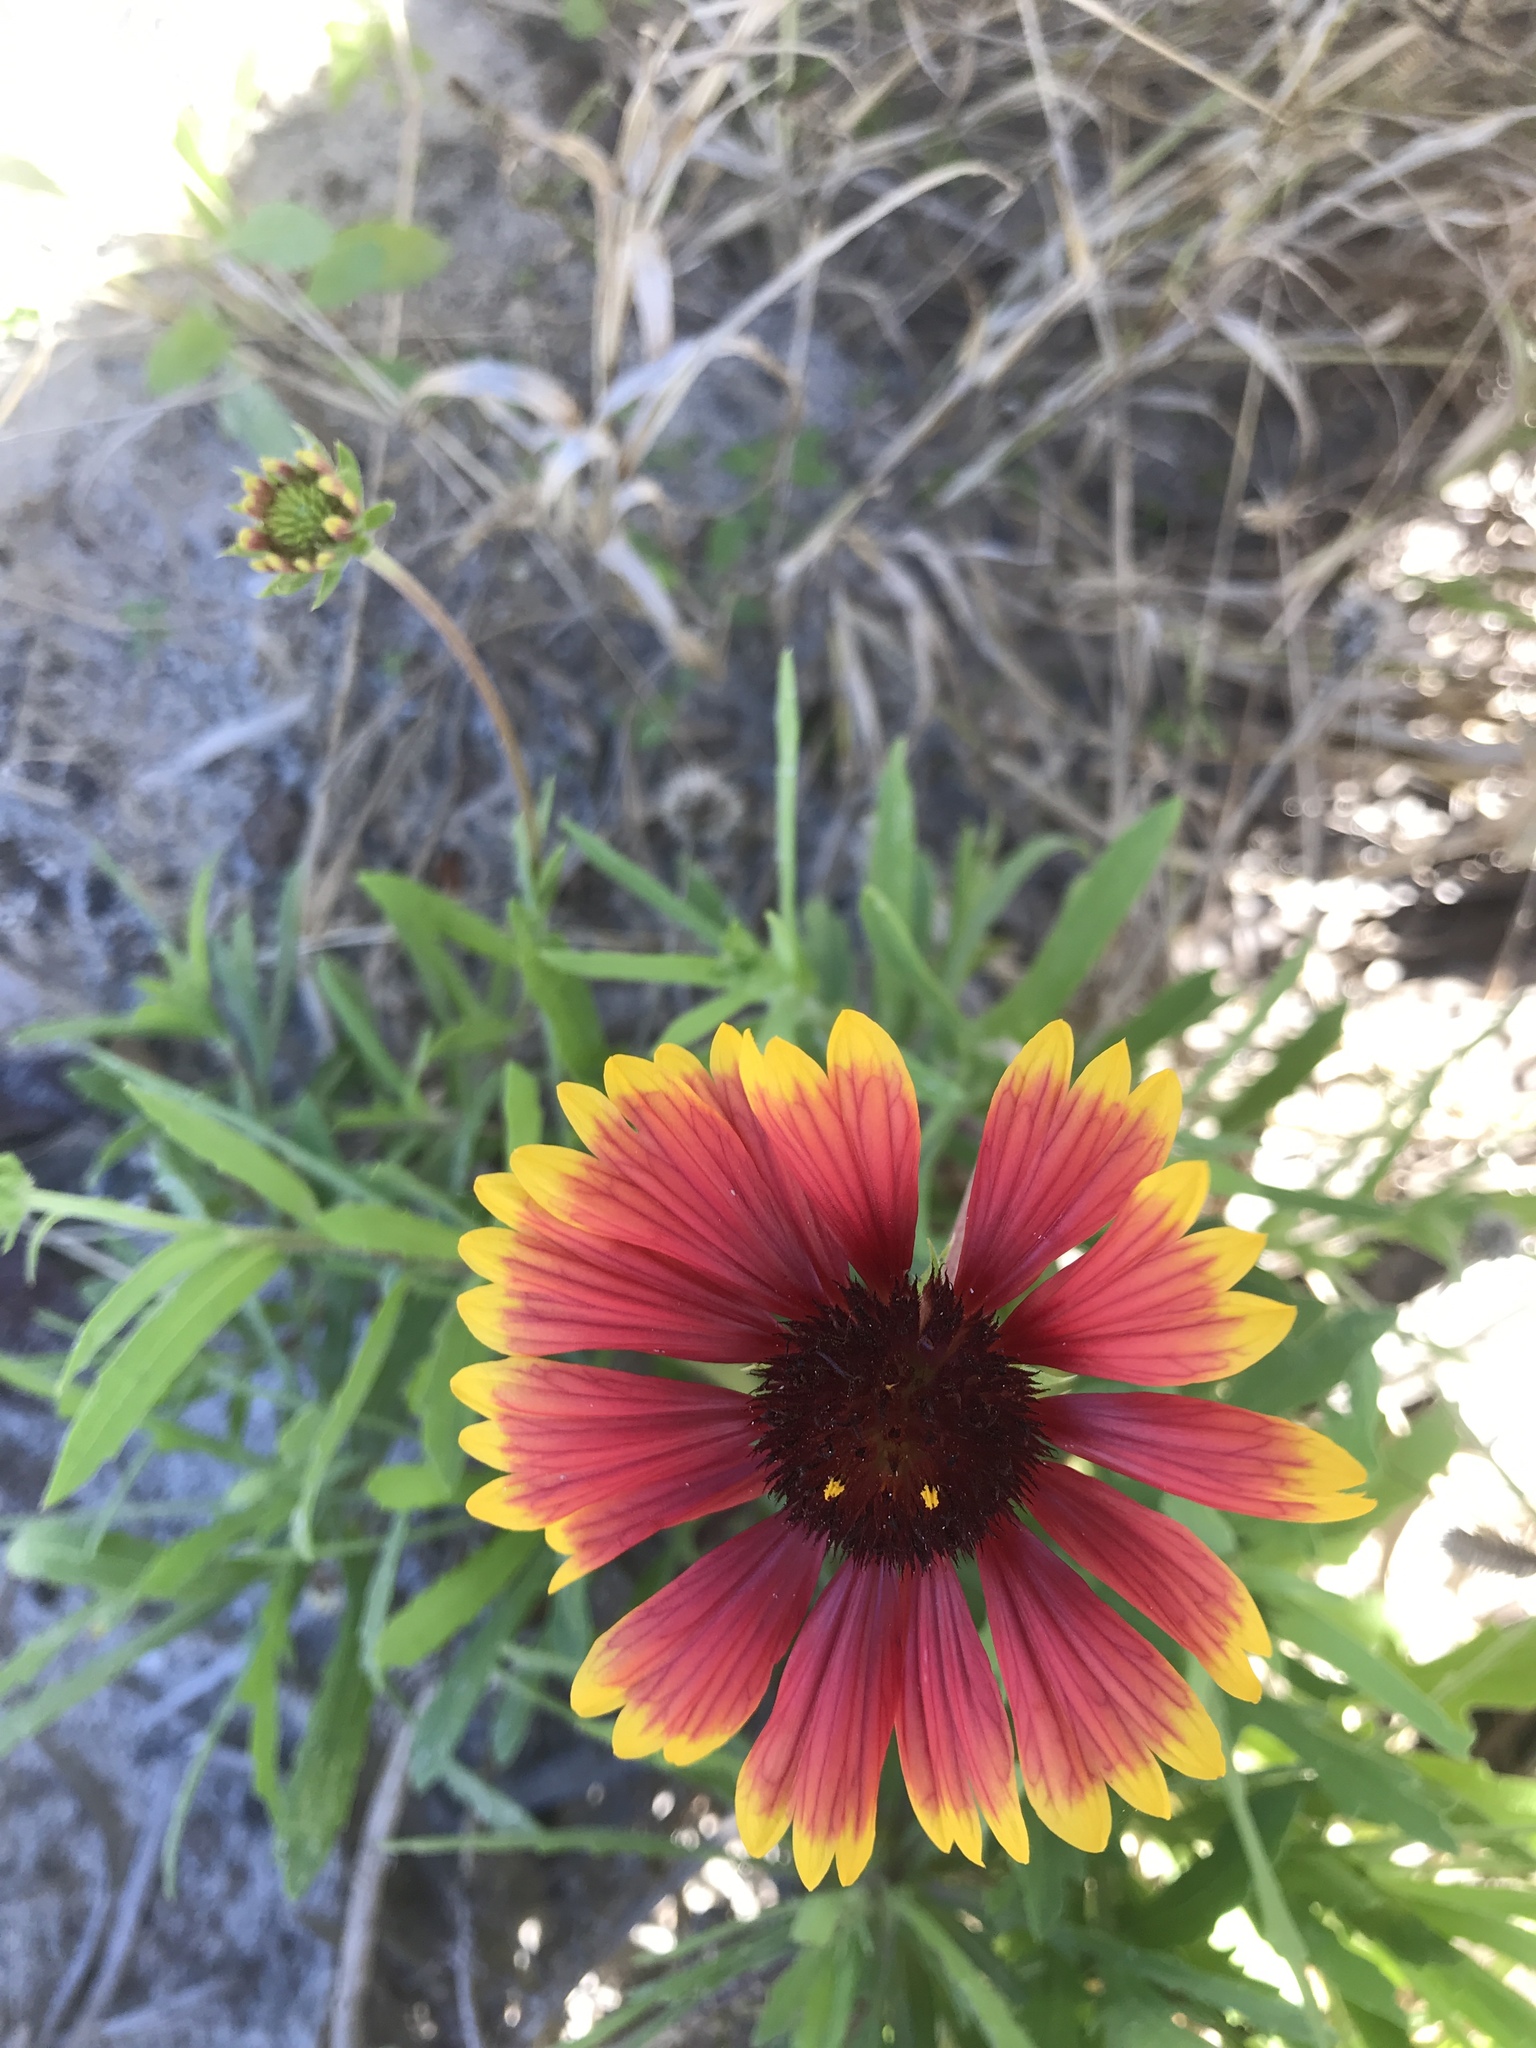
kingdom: Plantae
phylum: Tracheophyta
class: Magnoliopsida
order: Asterales
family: Asteraceae
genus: Gaillardia
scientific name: Gaillardia pulchella
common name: Firewheel
